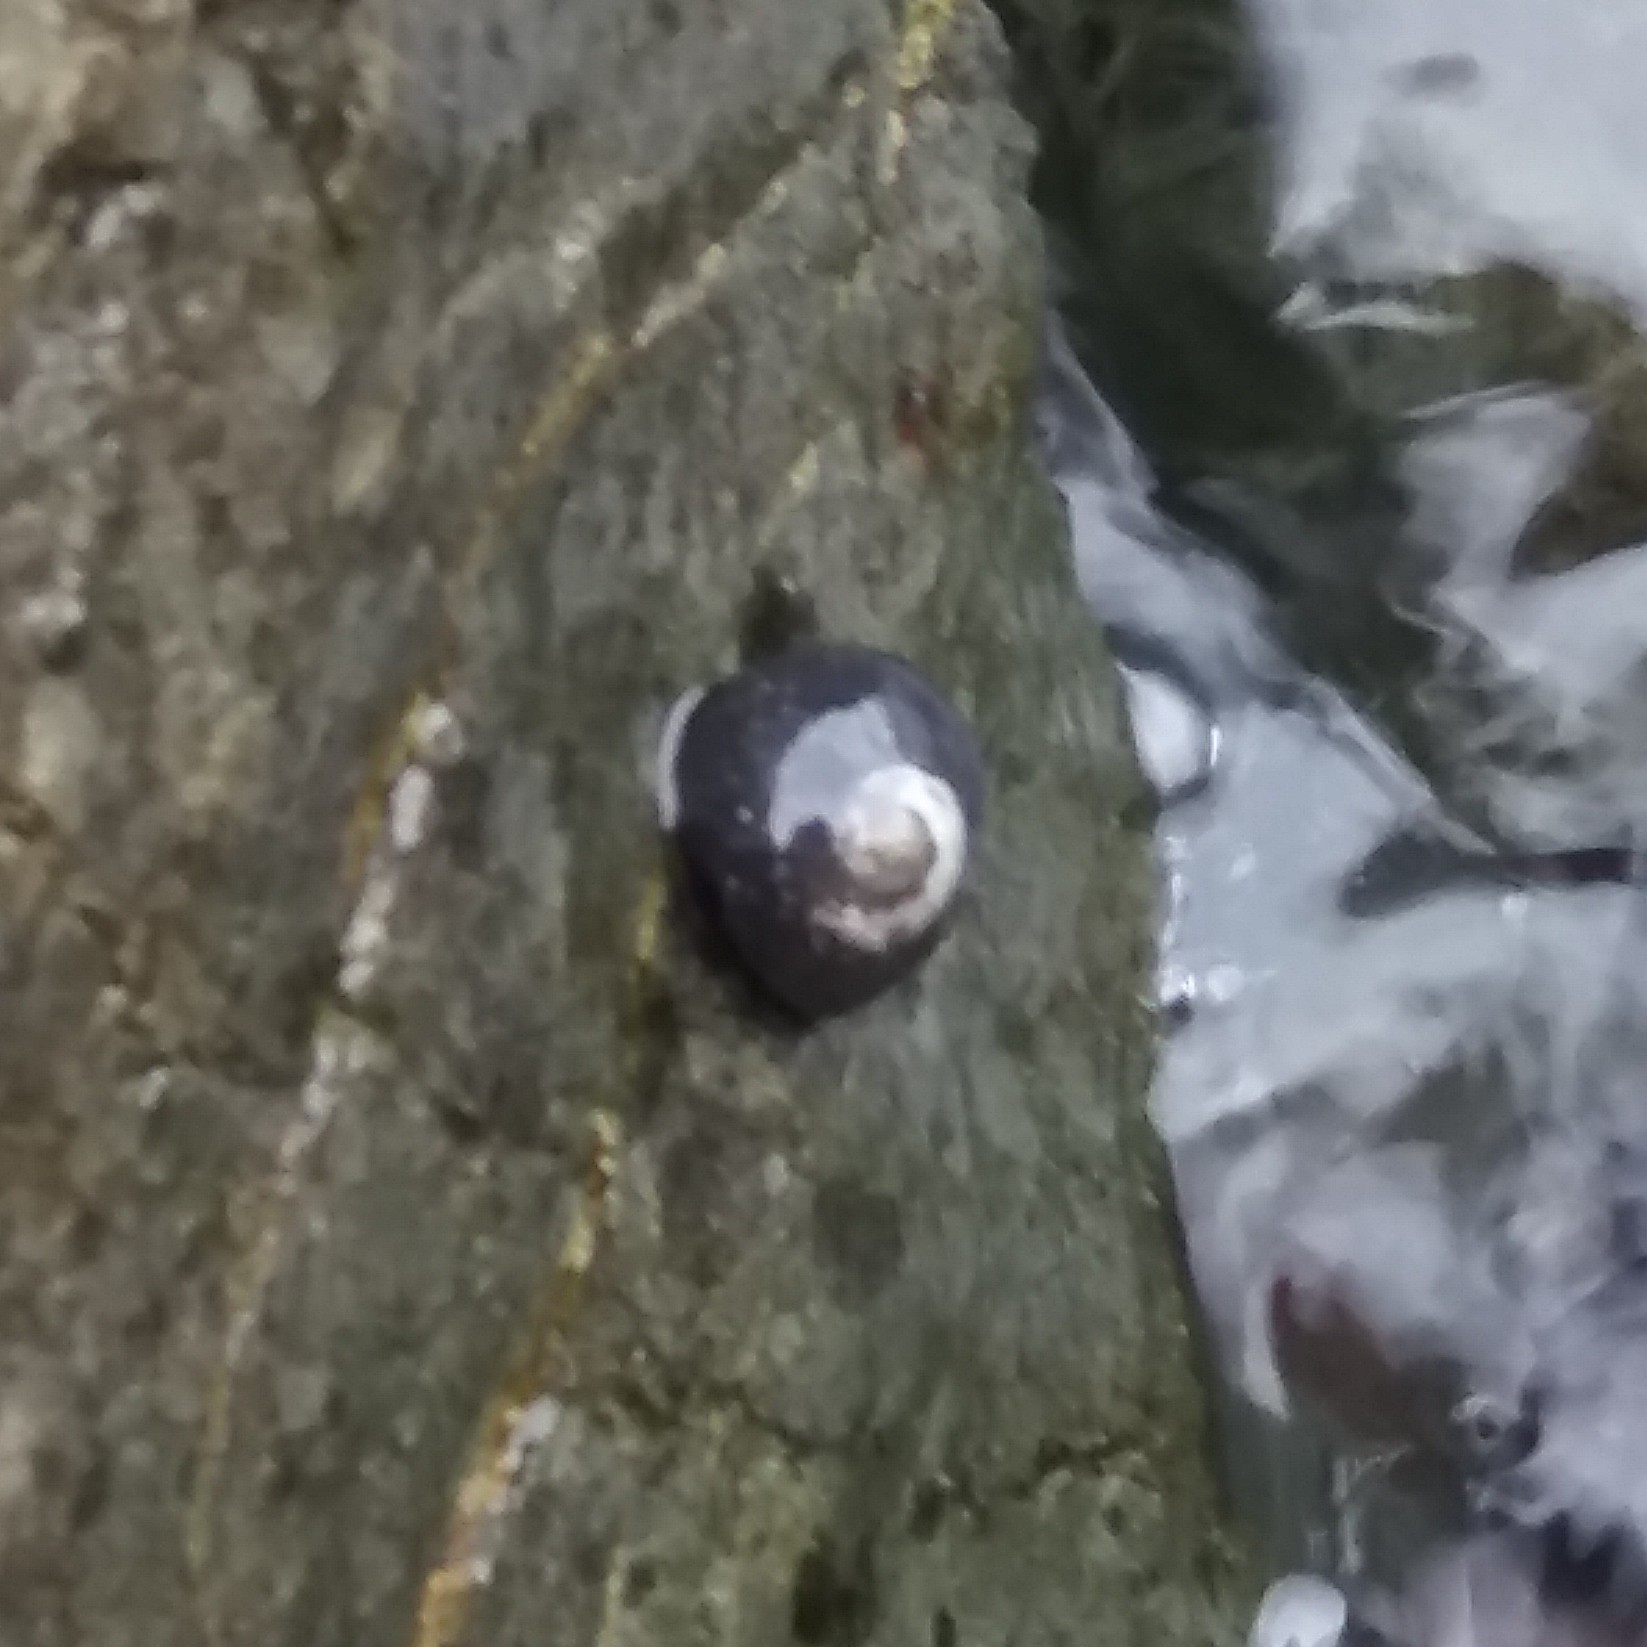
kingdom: Animalia
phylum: Mollusca
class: Gastropoda
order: Trochida
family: Trochidae
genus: Diloma
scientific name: Diloma aridum
